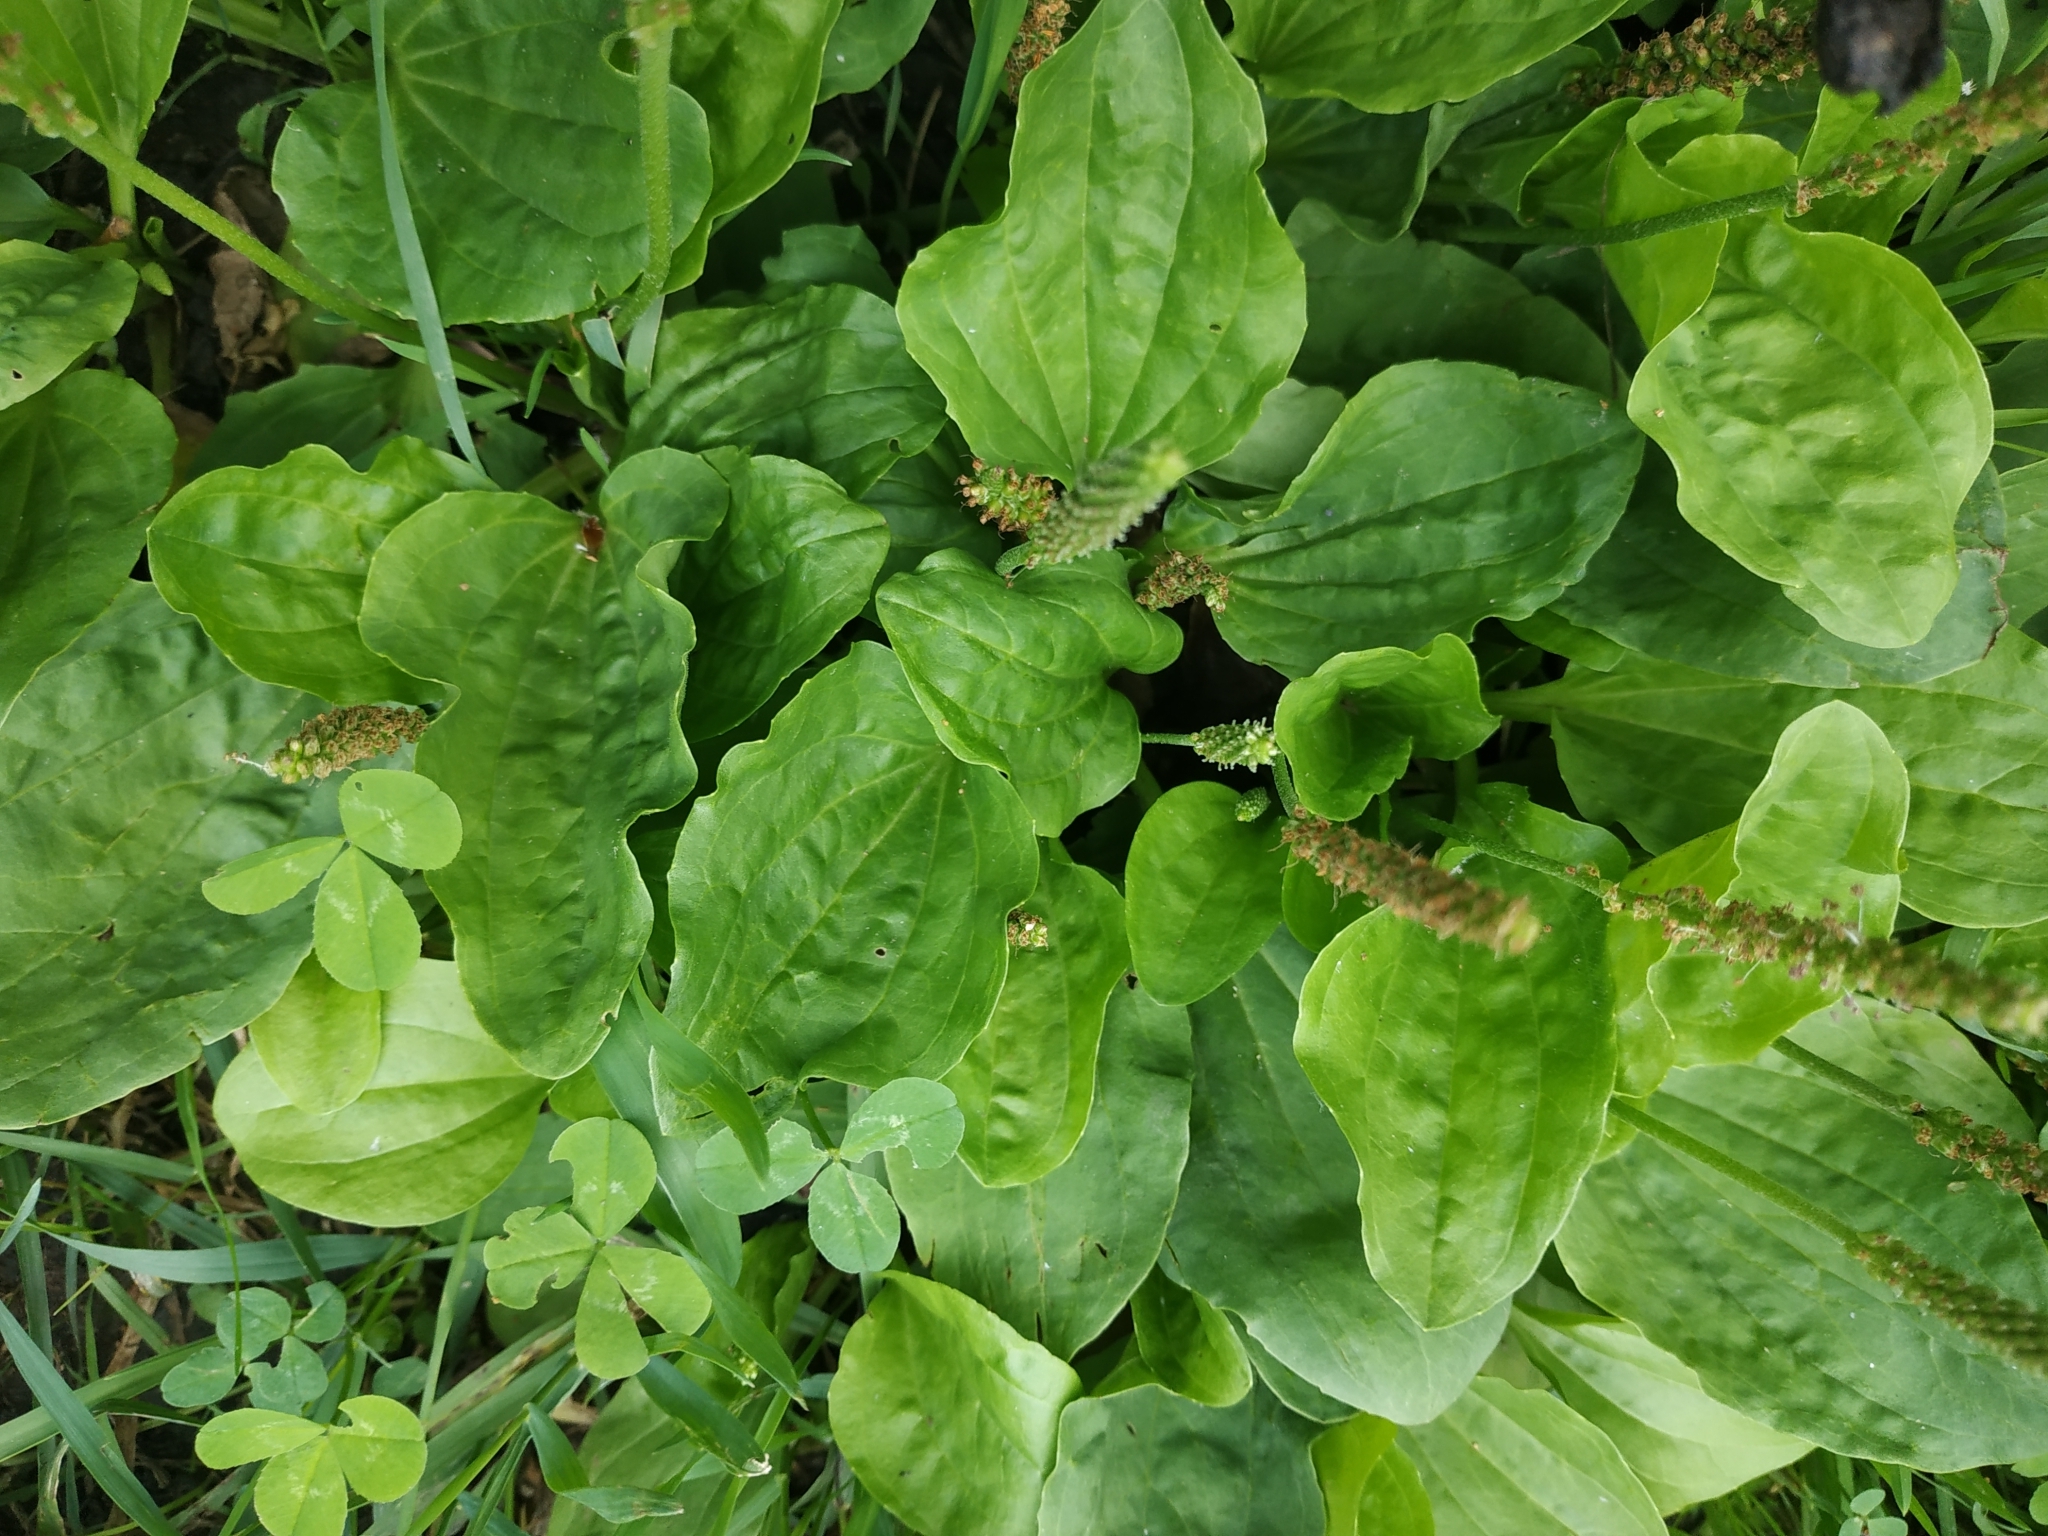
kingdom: Plantae
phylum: Tracheophyta
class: Magnoliopsida
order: Lamiales
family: Plantaginaceae
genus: Plantago
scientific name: Plantago major
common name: Common plantain
